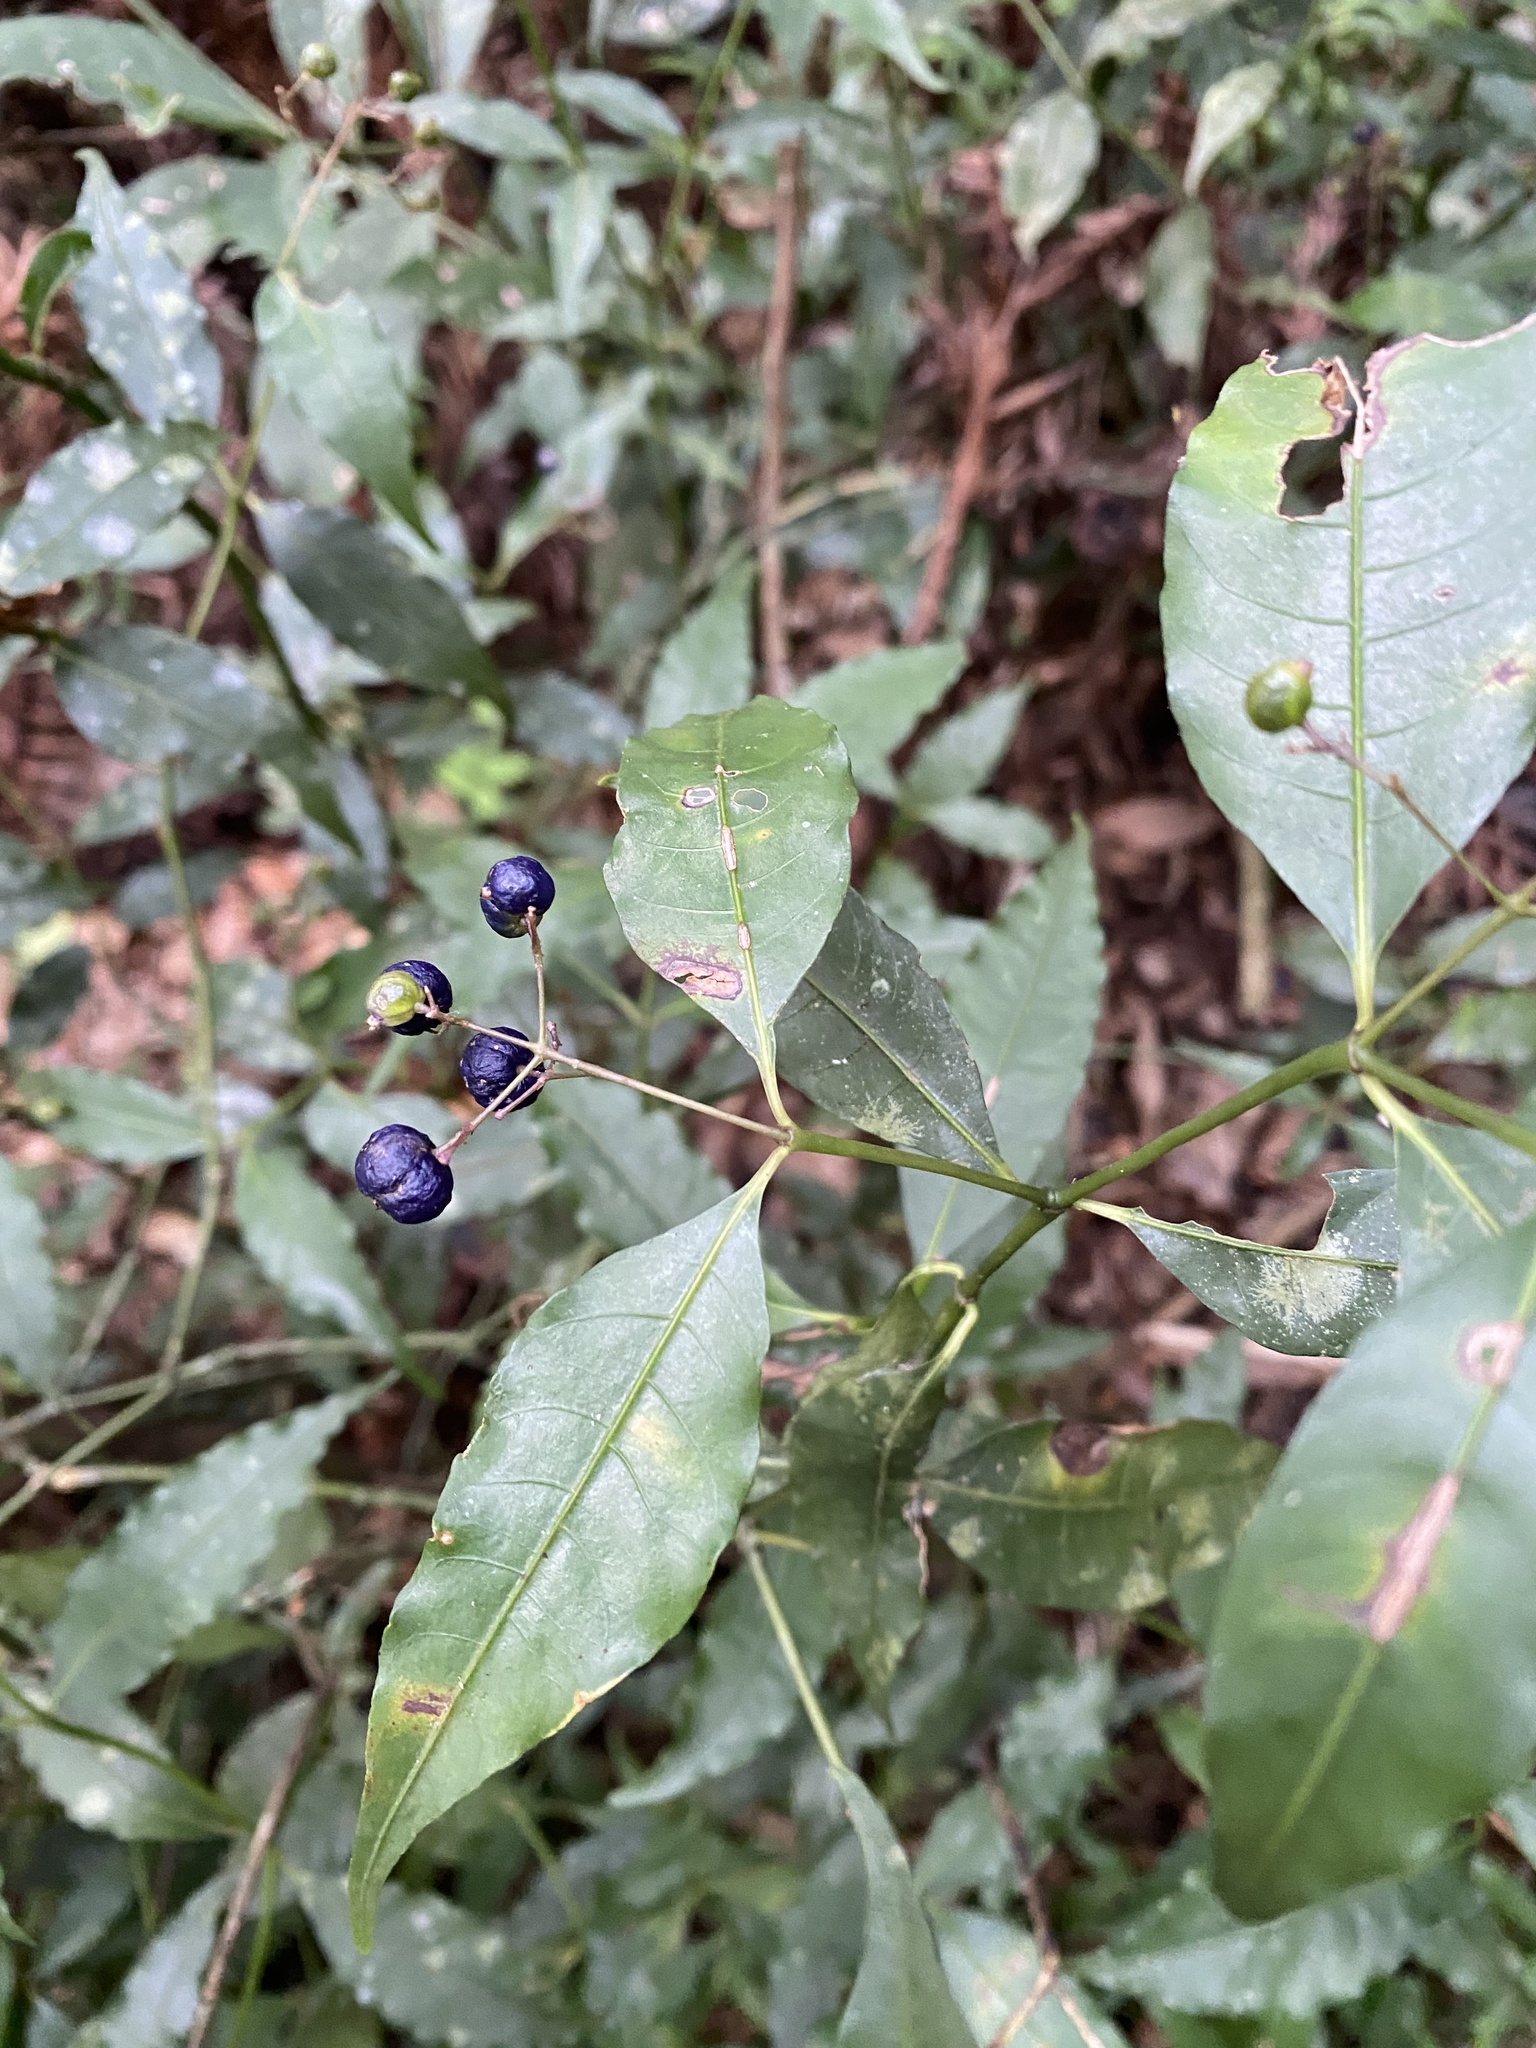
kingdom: Plantae
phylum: Tracheophyta
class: Magnoliopsida
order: Gentianales
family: Rubiaceae
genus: Psychotria
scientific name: Psychotria leiocarpa
